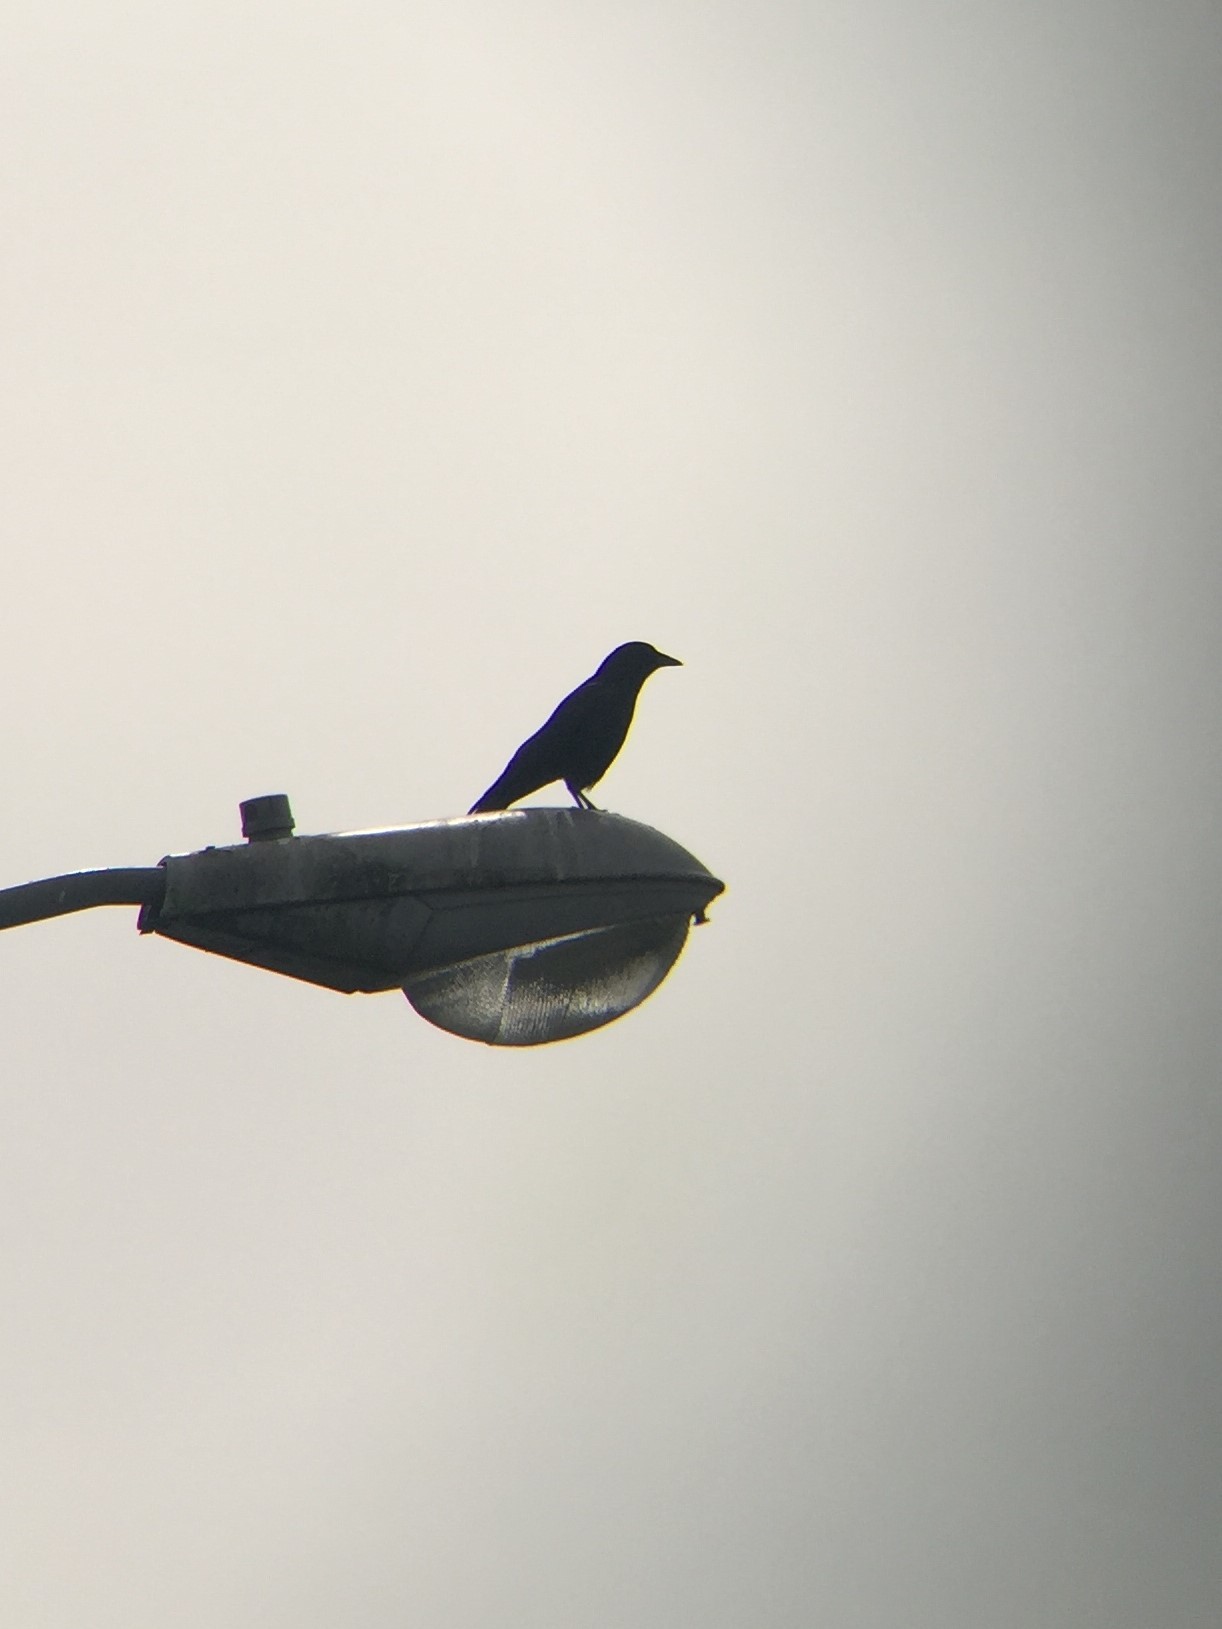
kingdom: Animalia
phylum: Chordata
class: Aves
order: Passeriformes
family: Corvidae
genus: Corvus
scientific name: Corvus brachyrhynchos
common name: American crow
